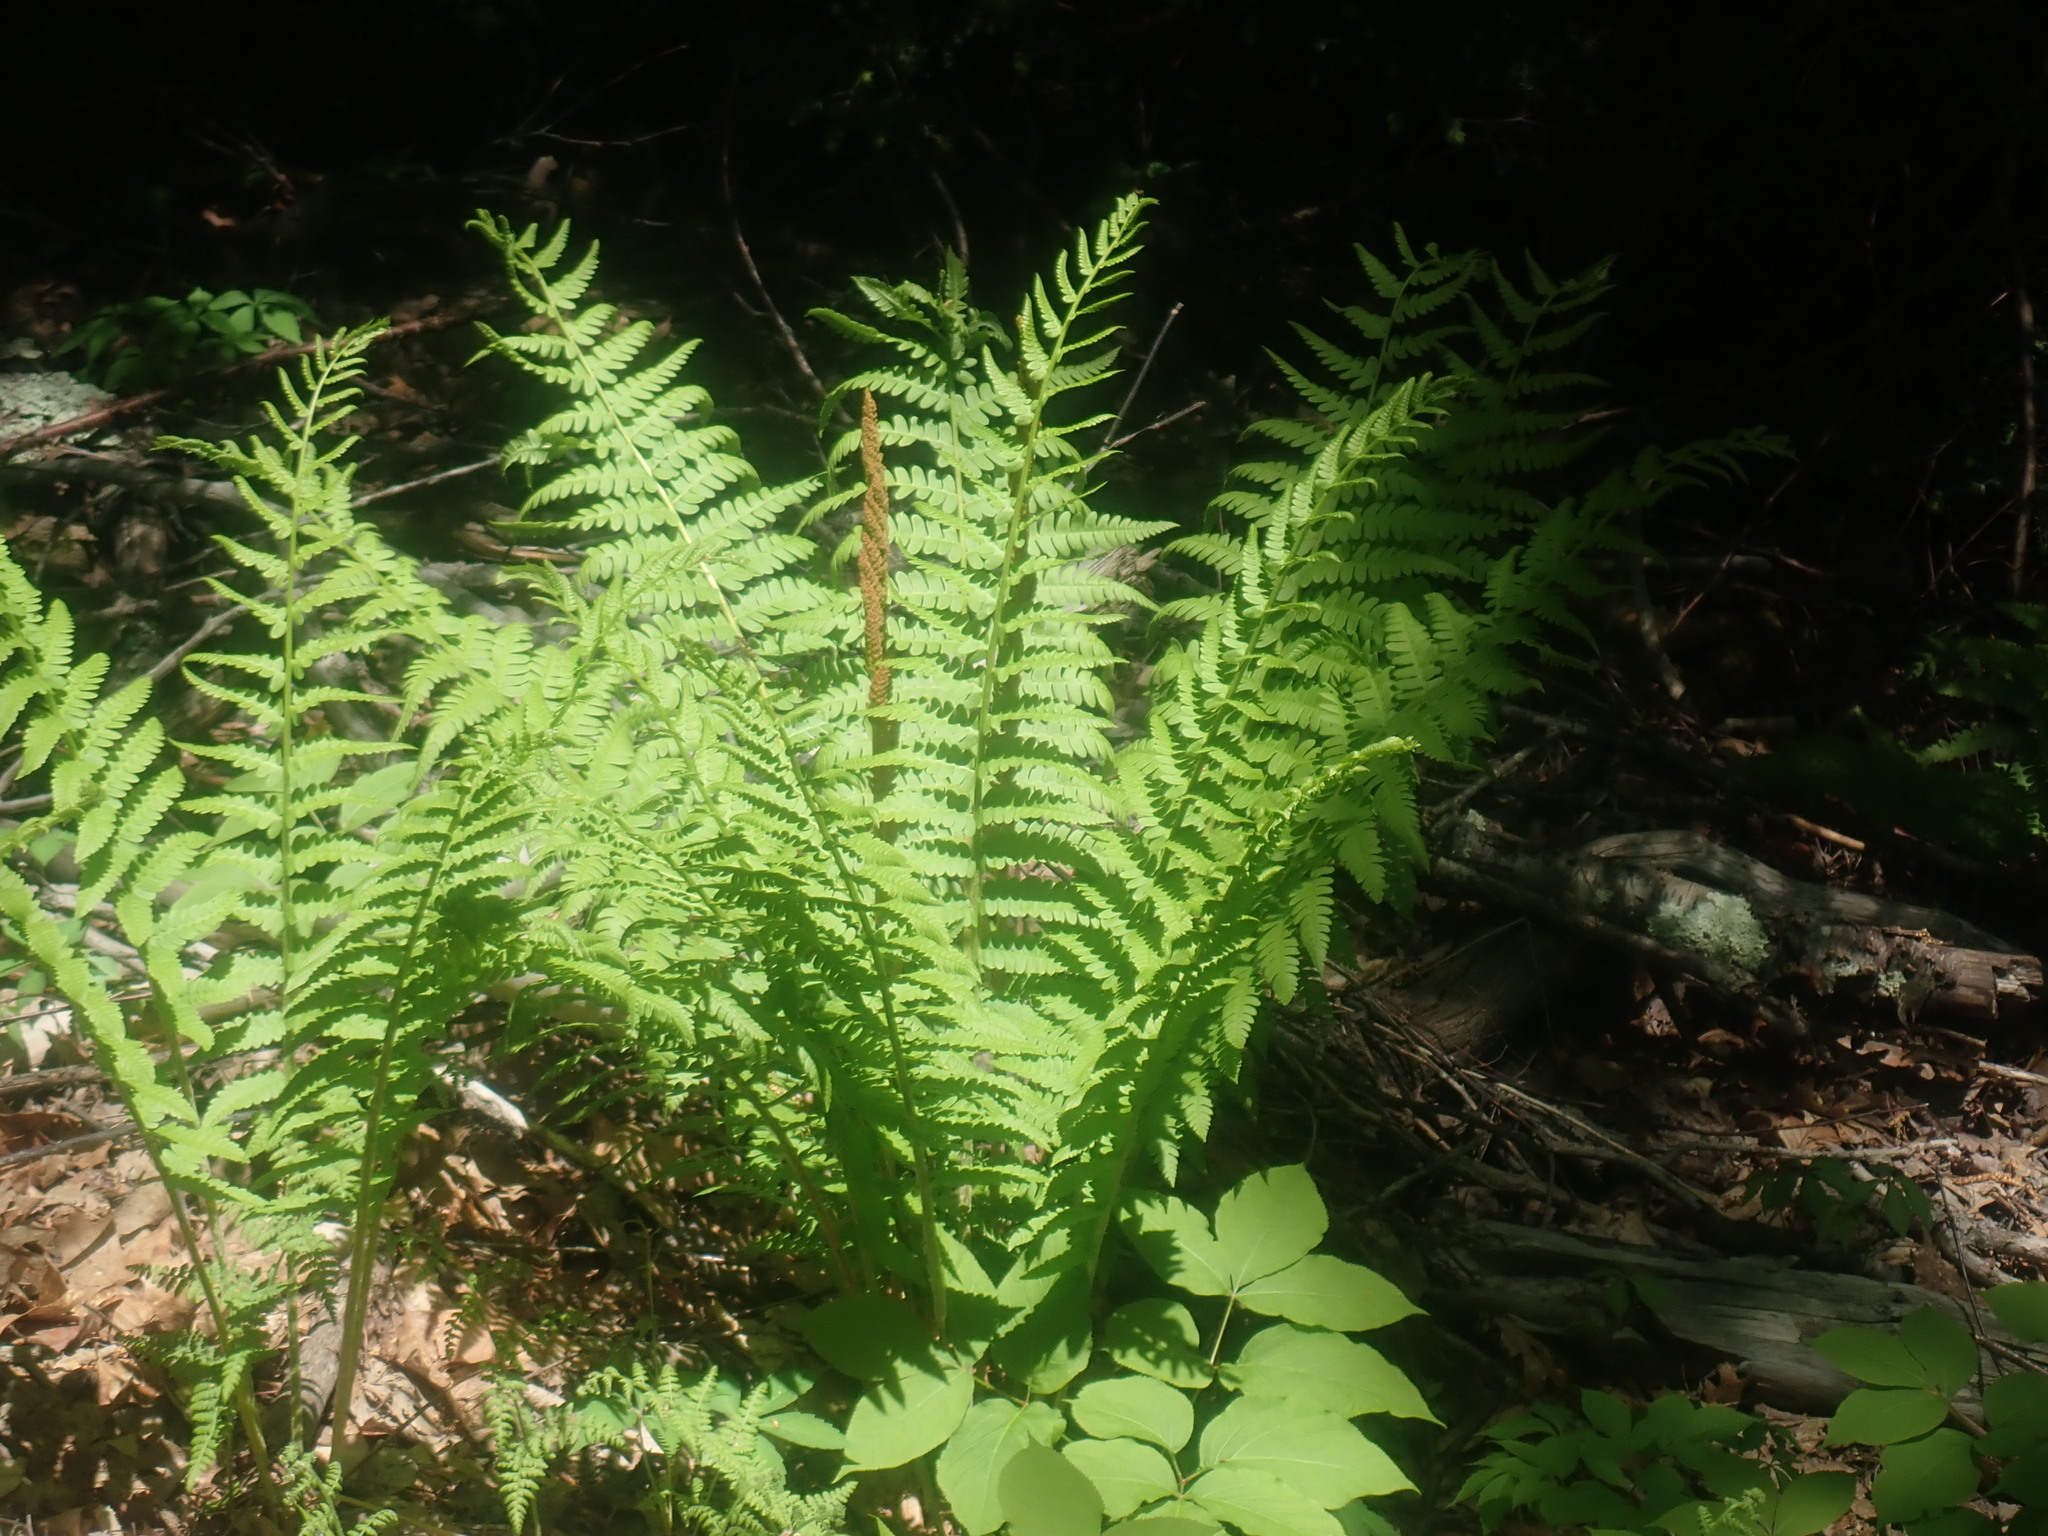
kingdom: Plantae
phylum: Tracheophyta
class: Polypodiopsida
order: Osmundales
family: Osmundaceae
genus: Osmundastrum
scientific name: Osmundastrum cinnamomeum
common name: Cinnamon fern
